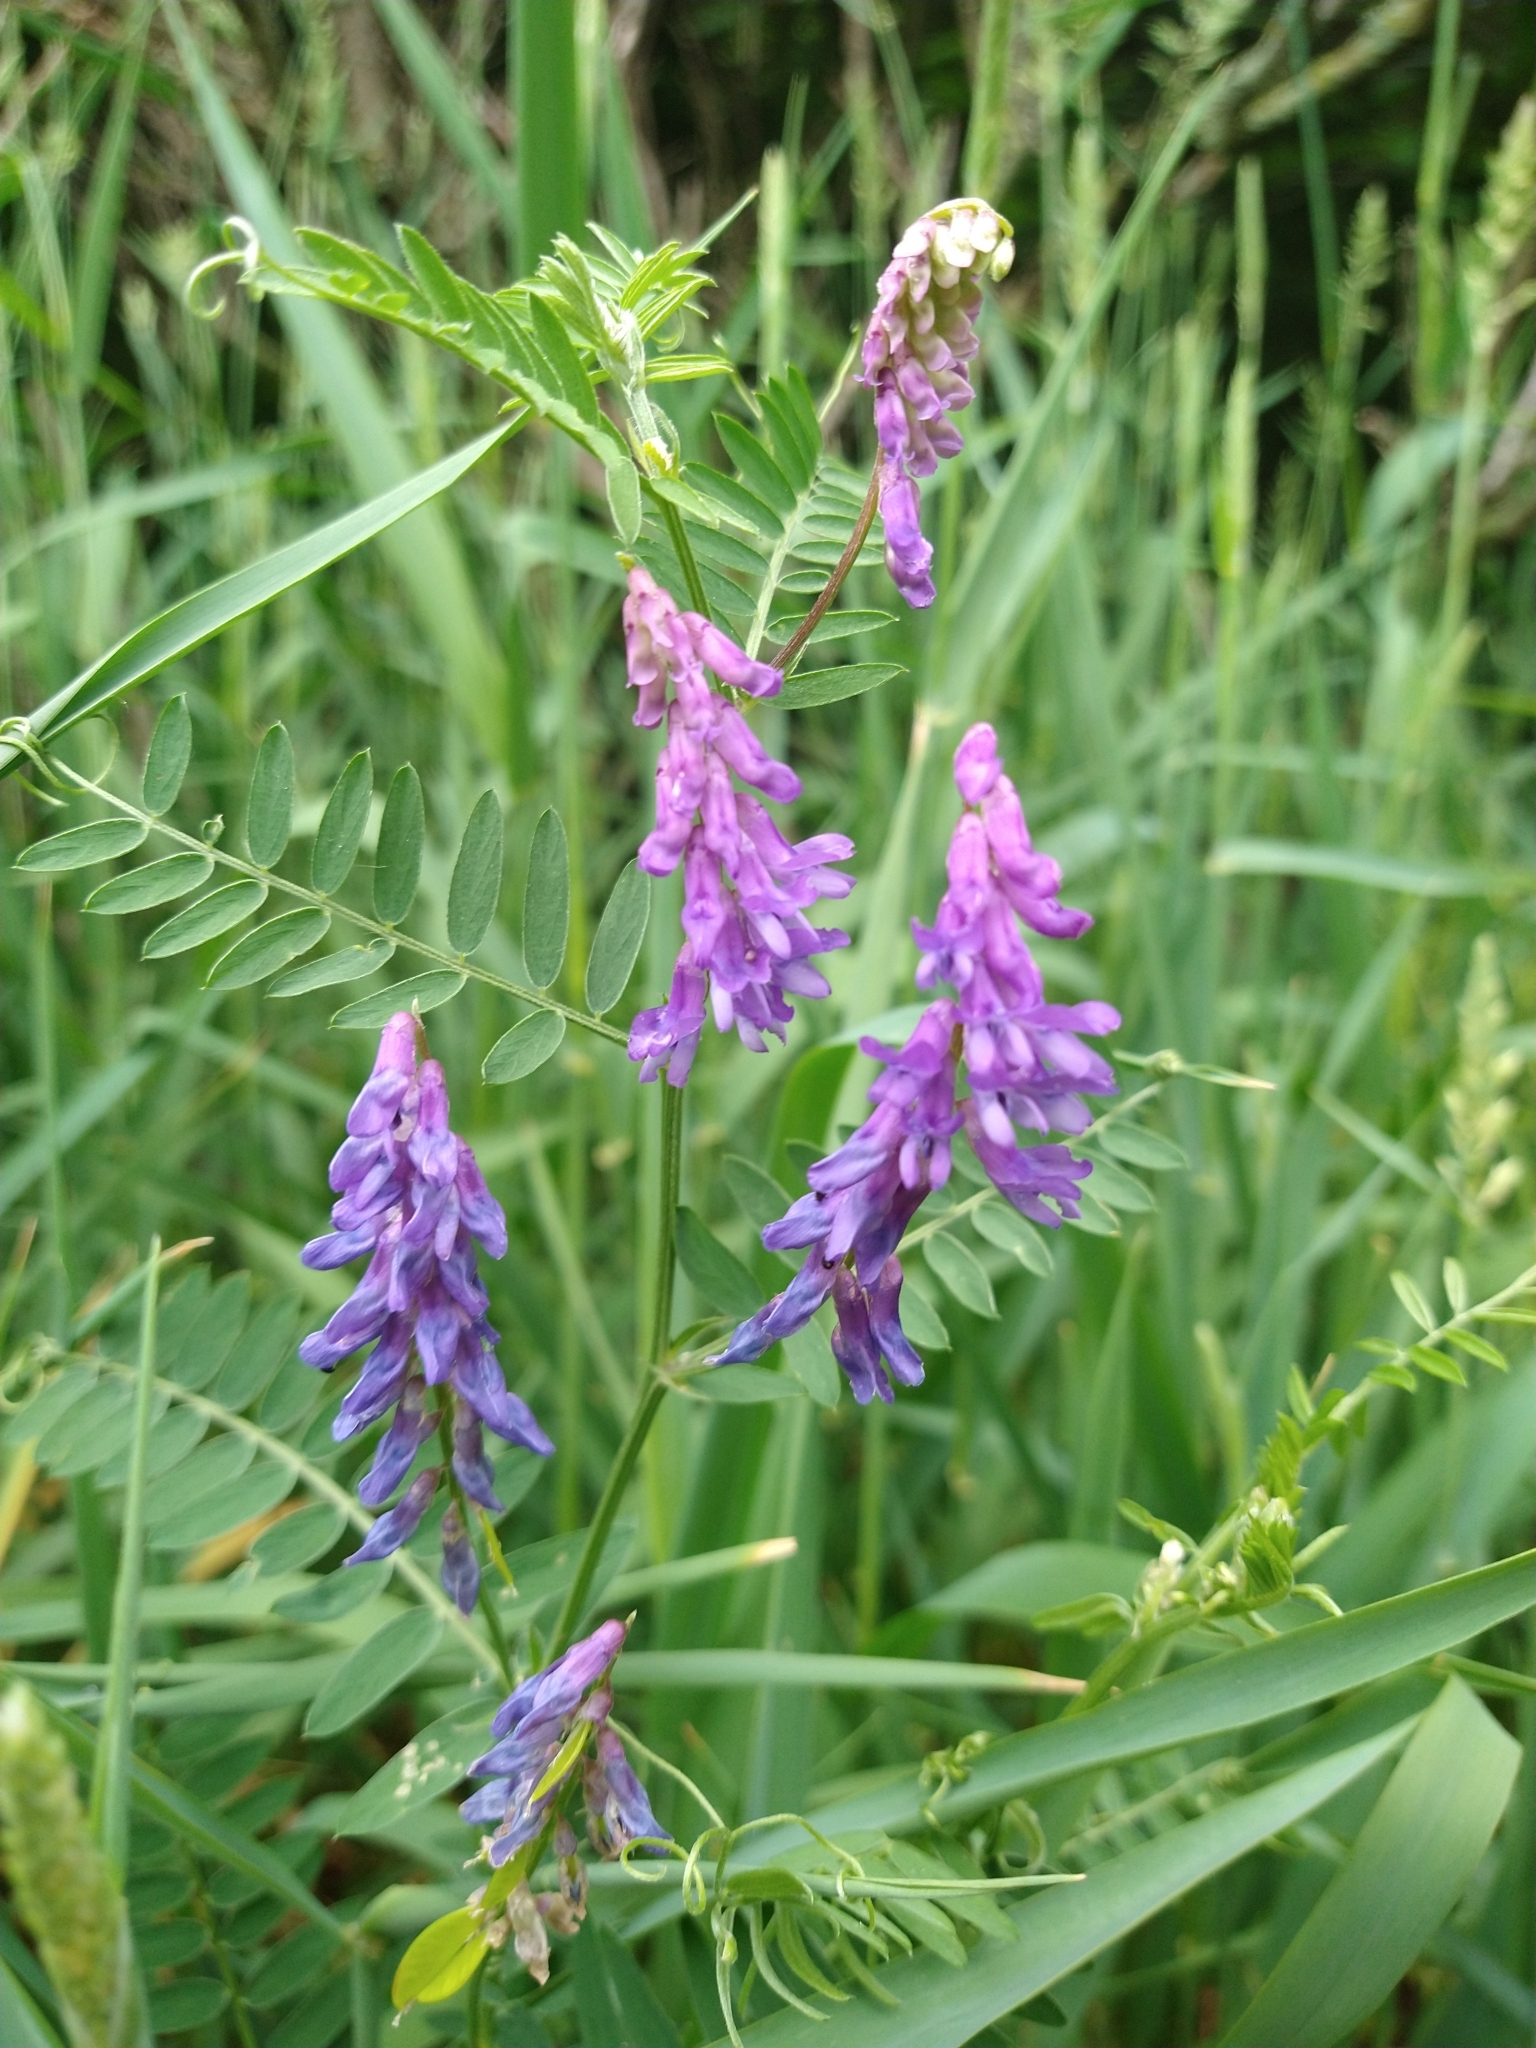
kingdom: Plantae
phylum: Tracheophyta
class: Magnoliopsida
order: Fabales
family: Fabaceae
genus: Vicia
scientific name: Vicia cracca
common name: Bird vetch
